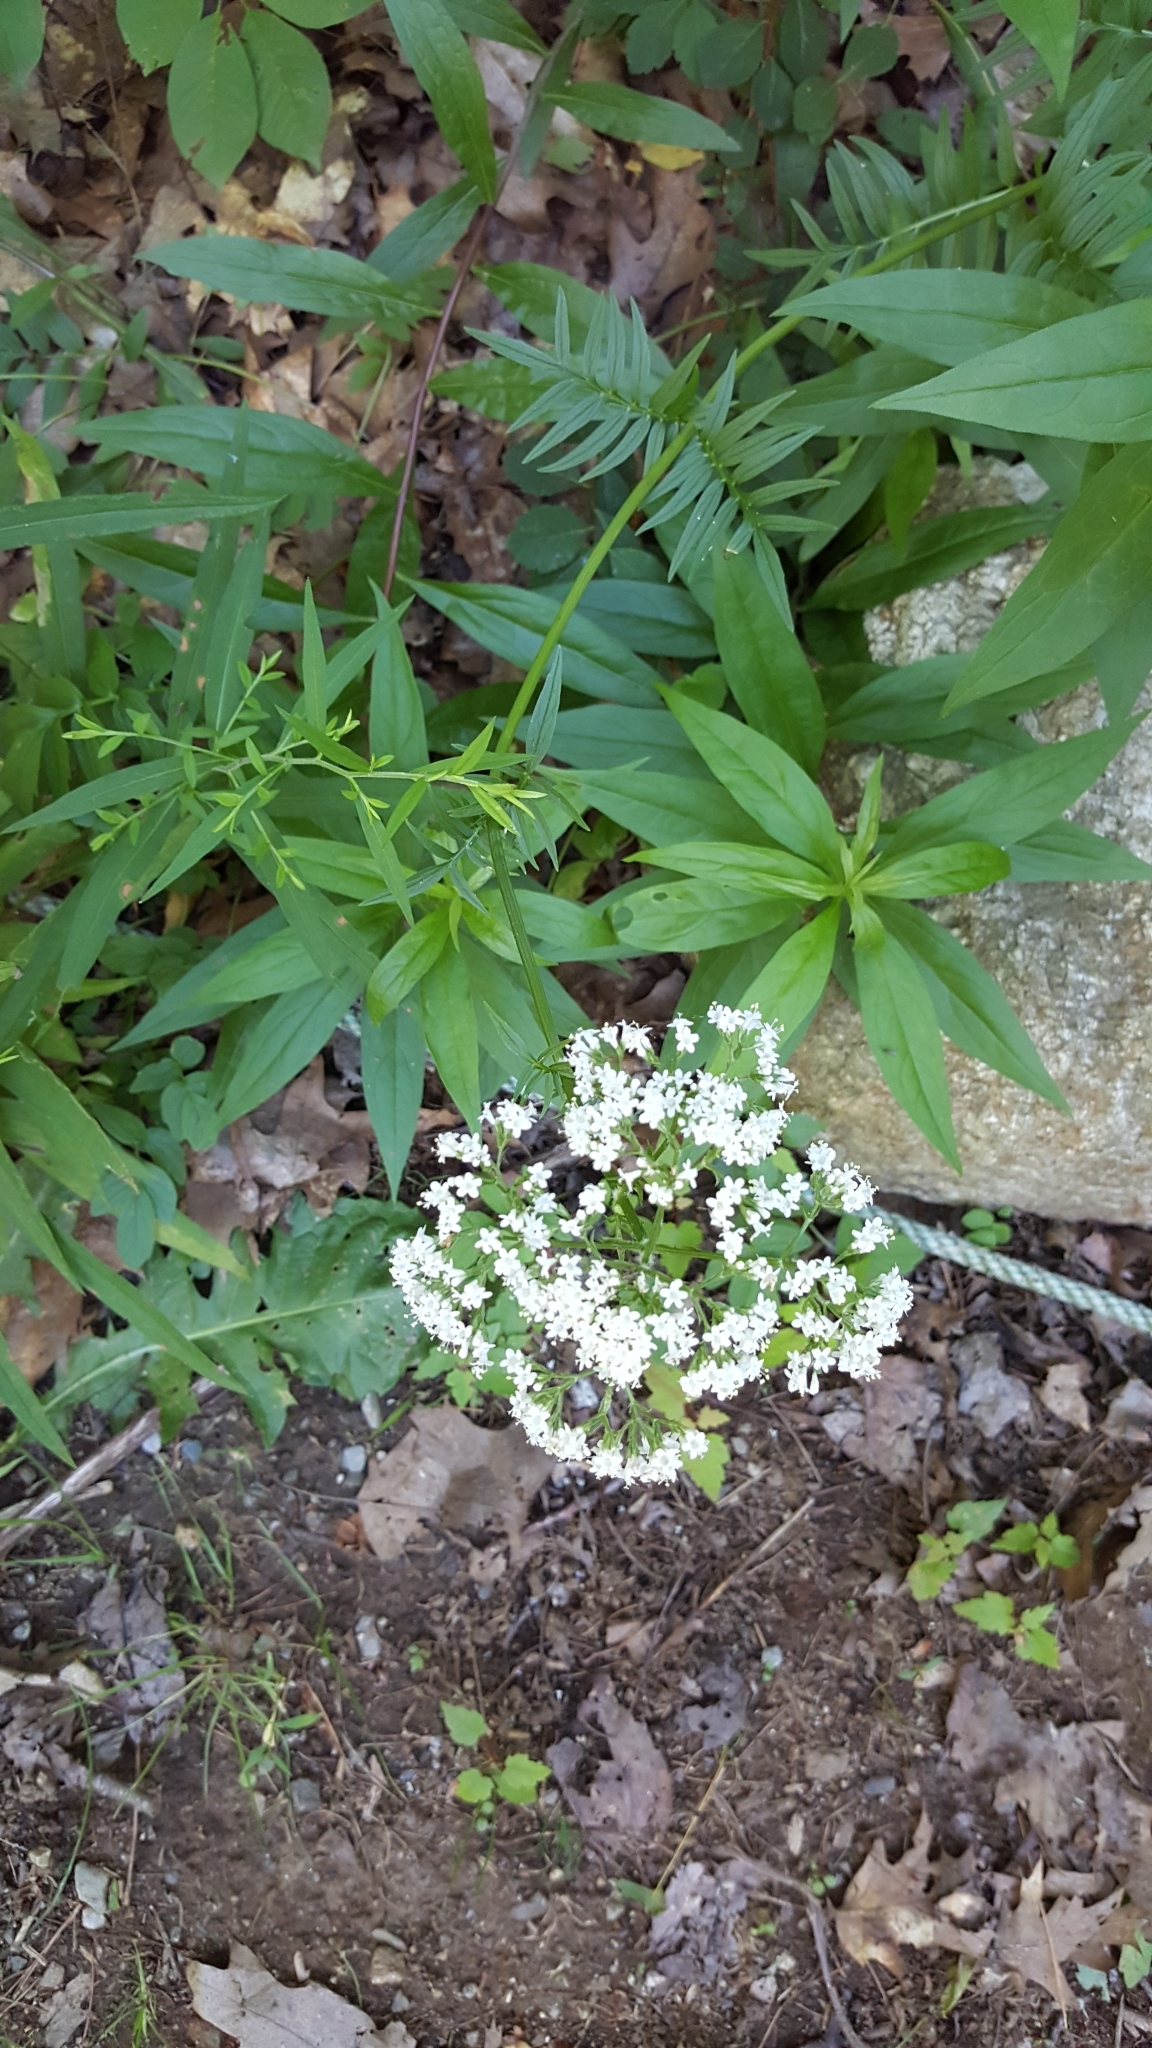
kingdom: Plantae
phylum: Tracheophyta
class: Magnoliopsida
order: Dipsacales
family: Caprifoliaceae
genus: Valeriana
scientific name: Valeriana officinalis
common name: Common valerian
